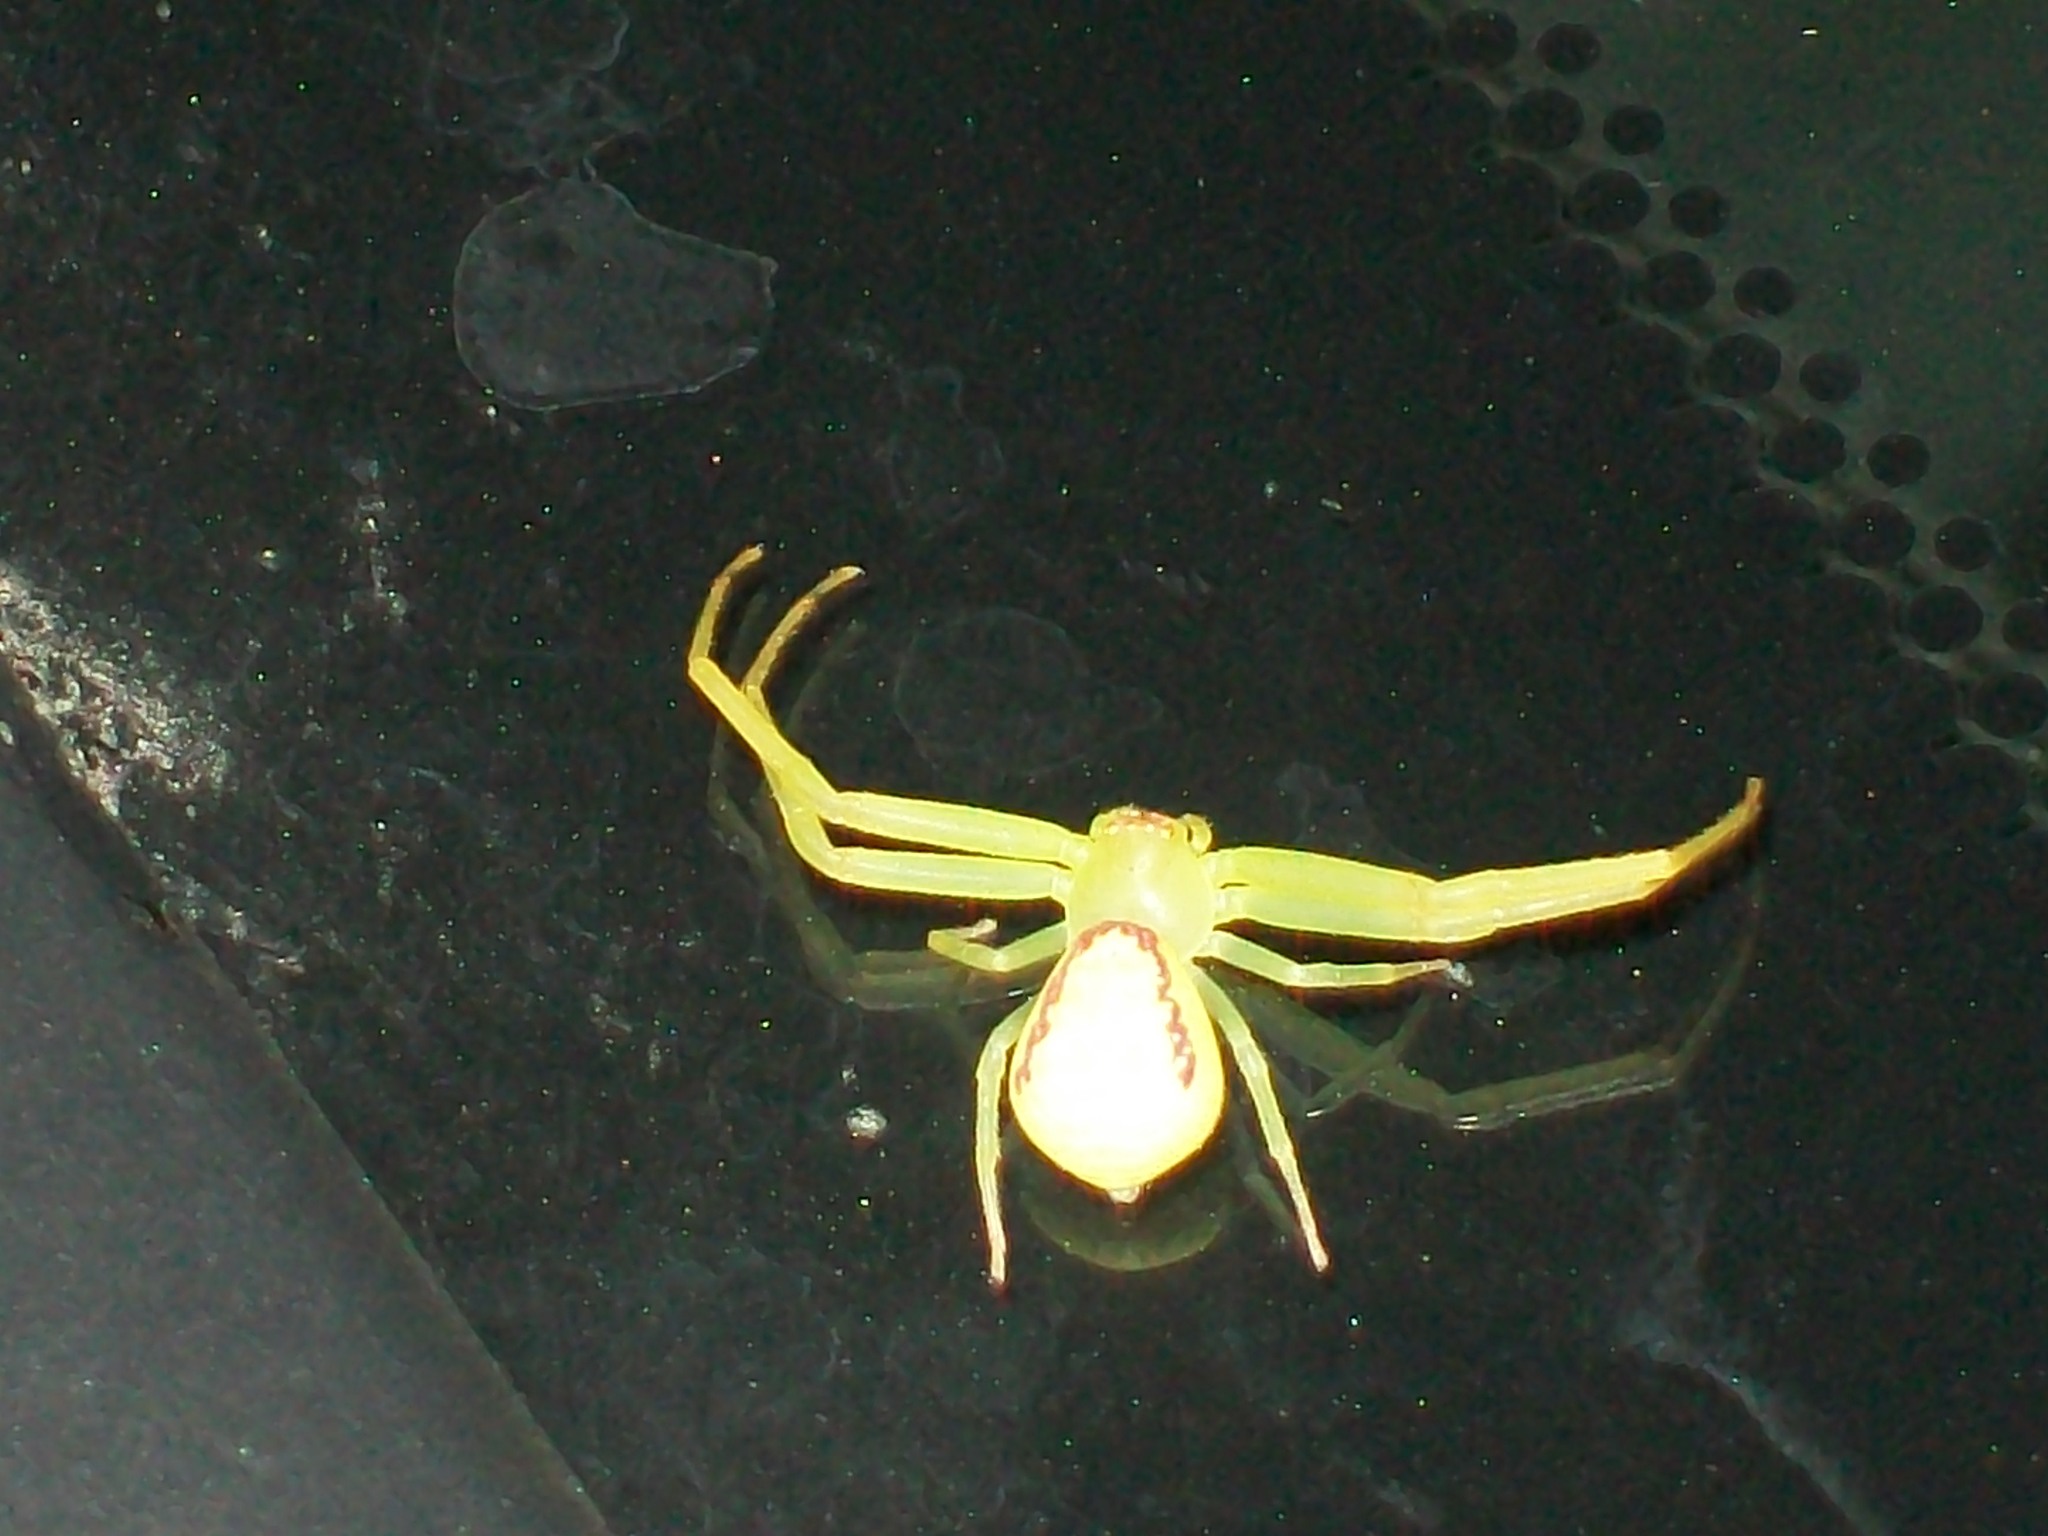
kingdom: Animalia
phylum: Arthropoda
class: Arachnida
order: Araneae
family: Thomisidae
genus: Misumessus
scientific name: Misumessus oblongus
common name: American green crab spider
